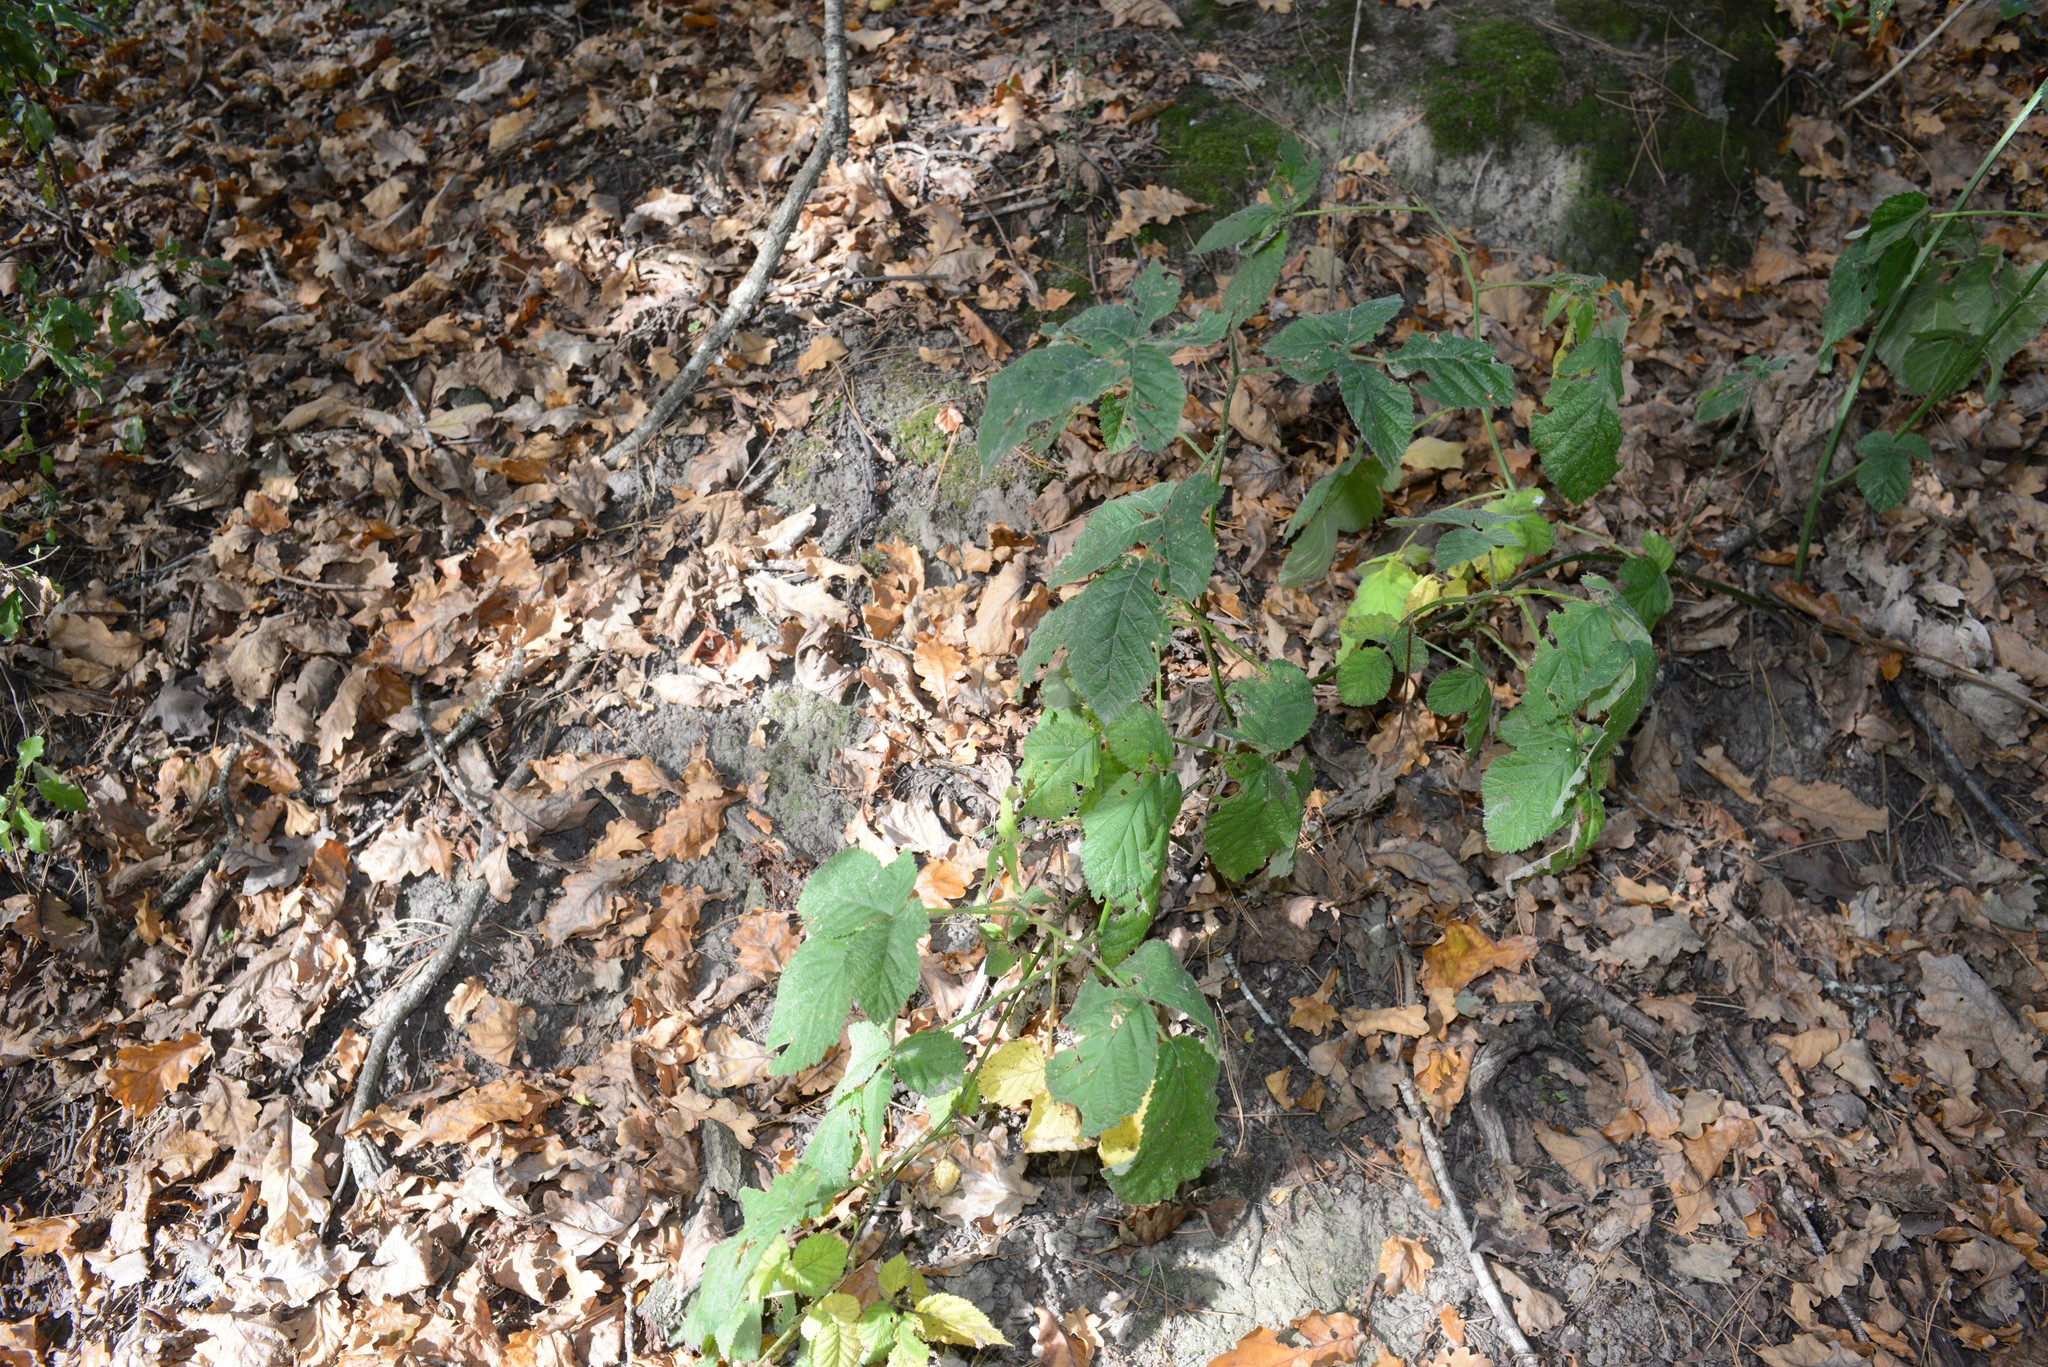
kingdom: Plantae
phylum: Tracheophyta
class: Magnoliopsida
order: Rosales
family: Rosaceae
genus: Rubus
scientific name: Rubus
